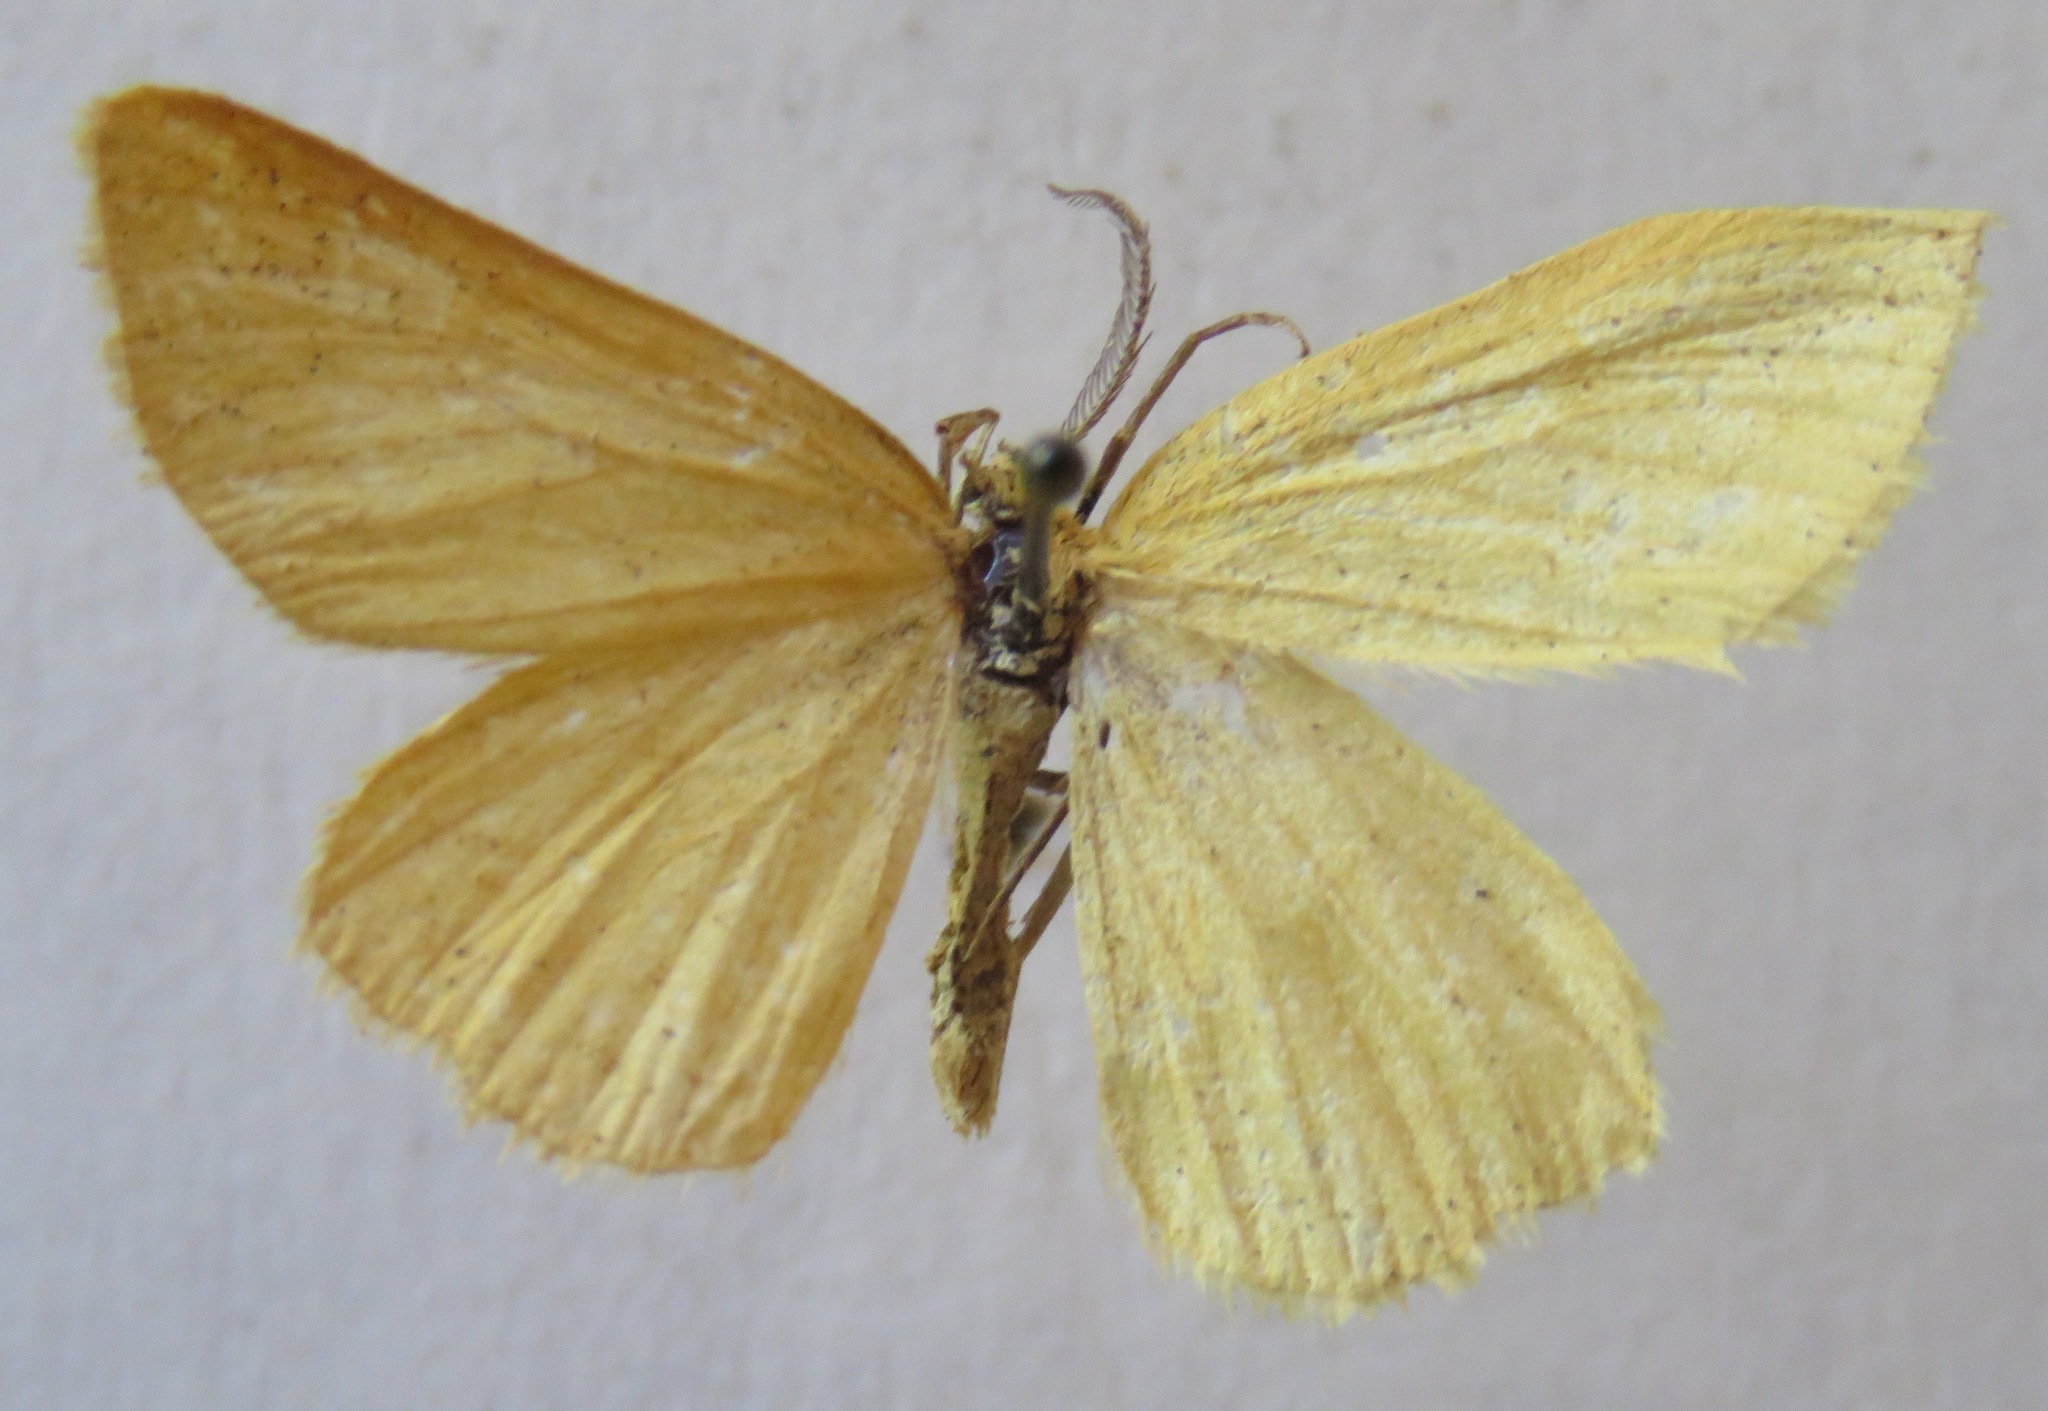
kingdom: Animalia
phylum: Arthropoda
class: Insecta
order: Lepidoptera
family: Geometridae
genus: Crocota
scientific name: Crocota tinctaria
